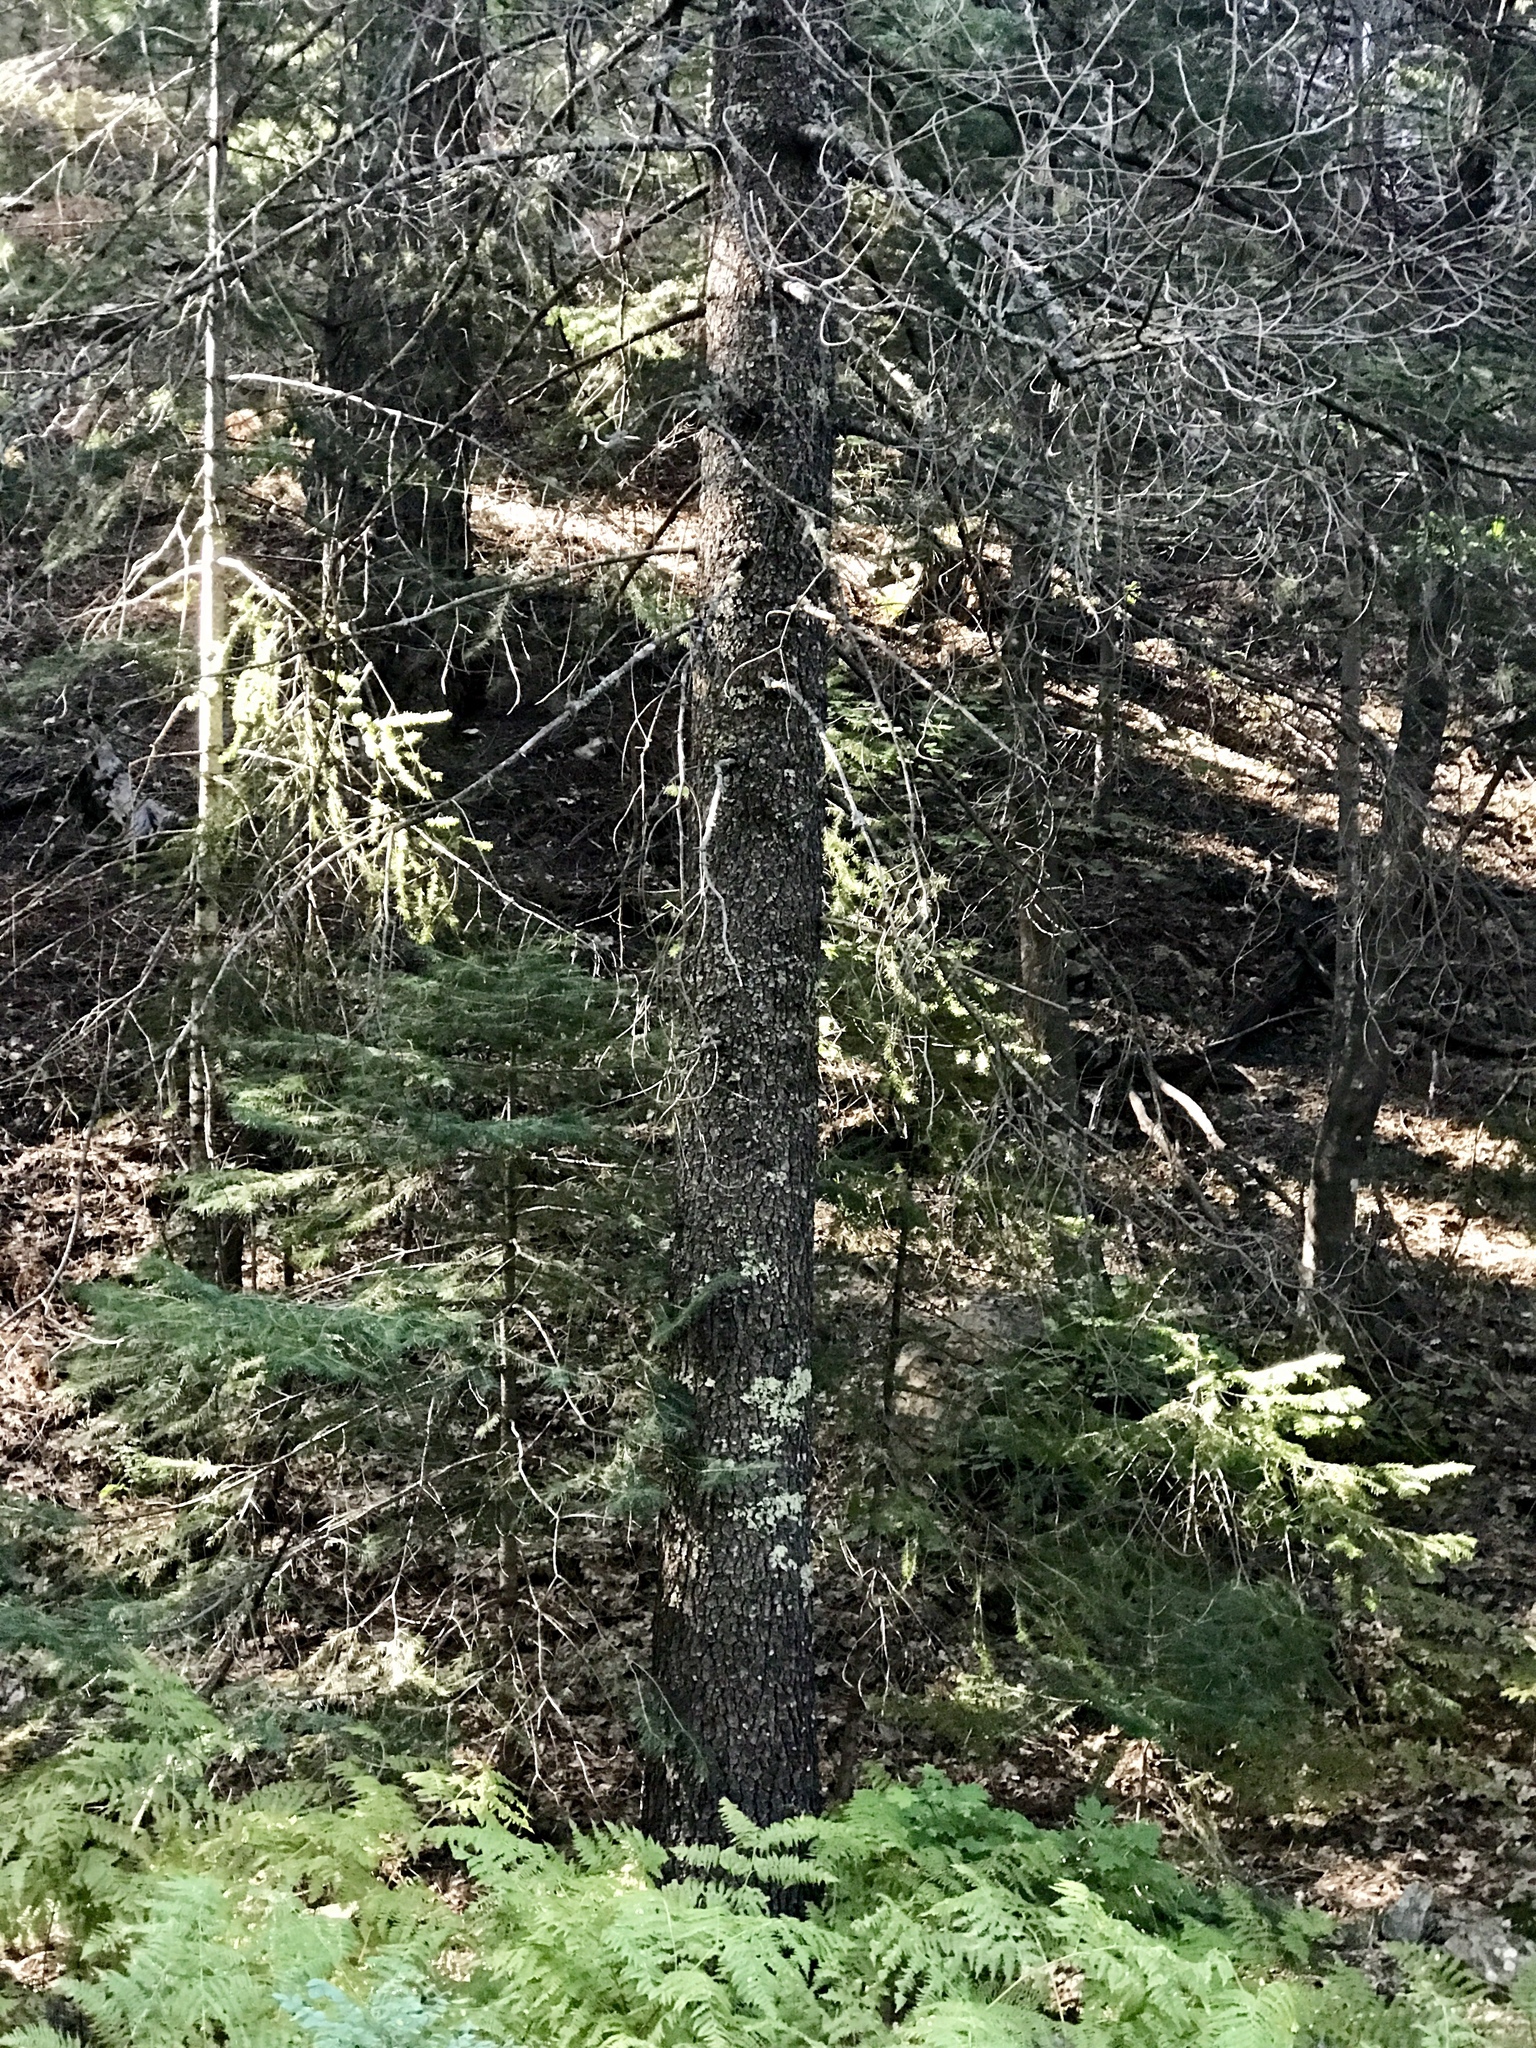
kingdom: Plantae
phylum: Tracheophyta
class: Pinopsida
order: Pinales
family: Pinaceae
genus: Pinus
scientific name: Pinus strobiformis
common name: Southwestern white pine
